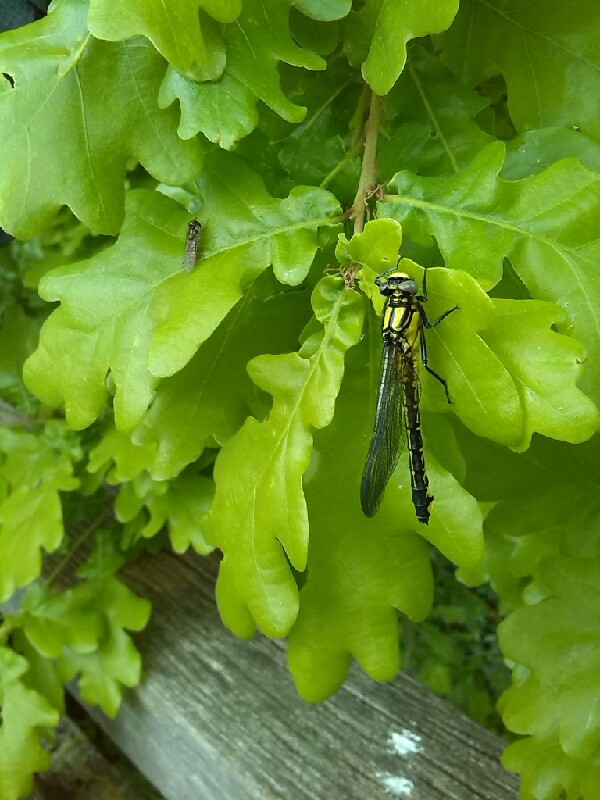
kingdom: Animalia
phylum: Arthropoda
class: Insecta
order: Odonata
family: Gomphidae
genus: Gomphus
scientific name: Gomphus vulgatissimus
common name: Club-tailed dragonfly
